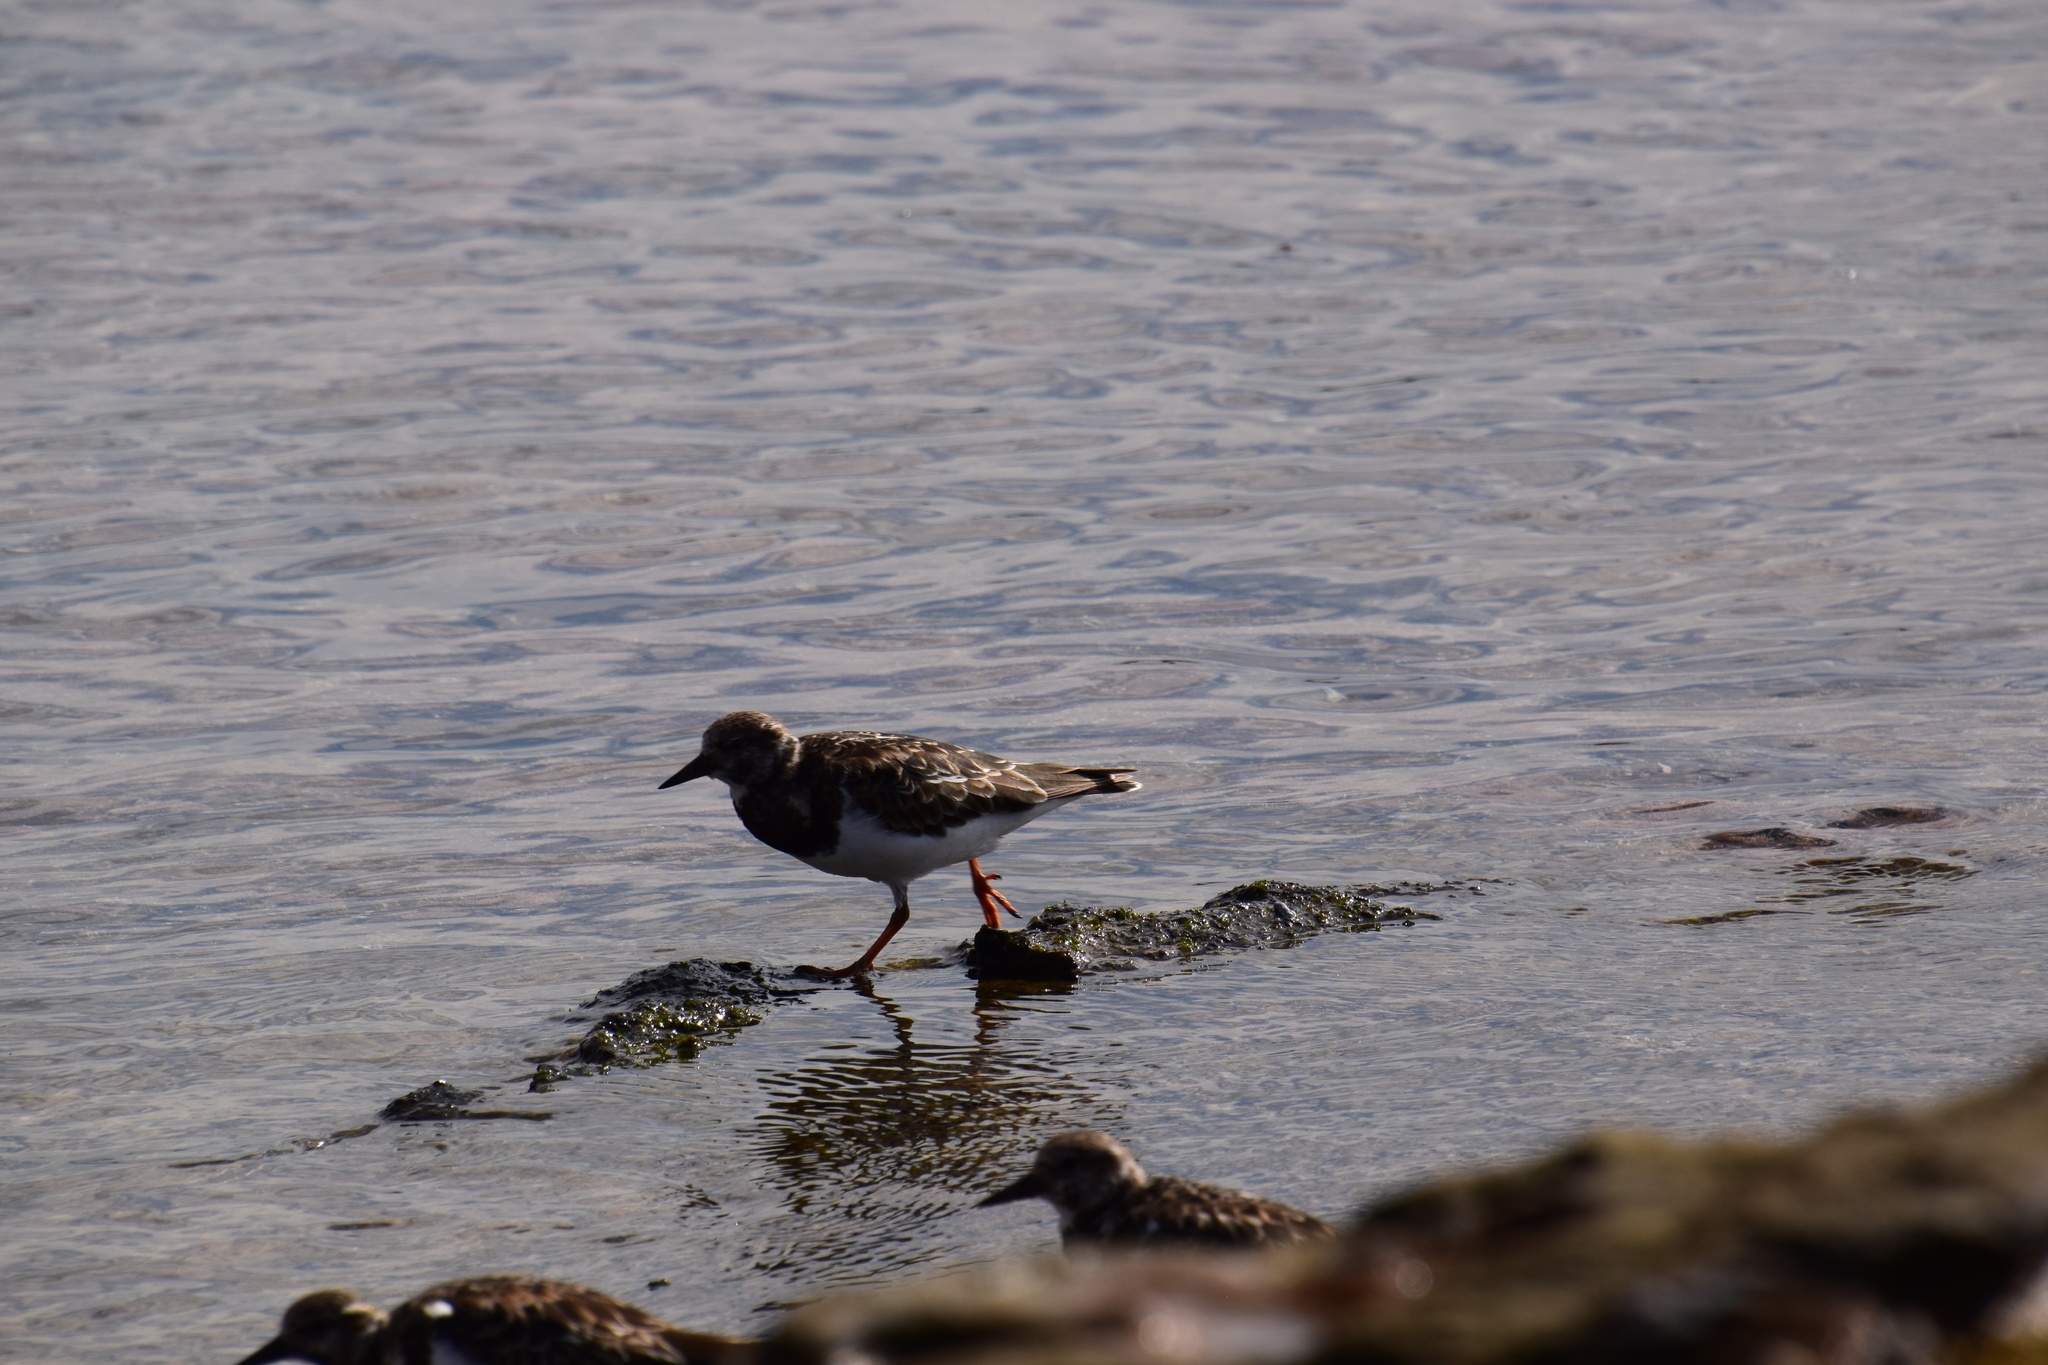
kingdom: Animalia
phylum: Chordata
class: Aves
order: Charadriiformes
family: Scolopacidae
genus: Arenaria
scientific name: Arenaria interpres
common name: Ruddy turnstone
